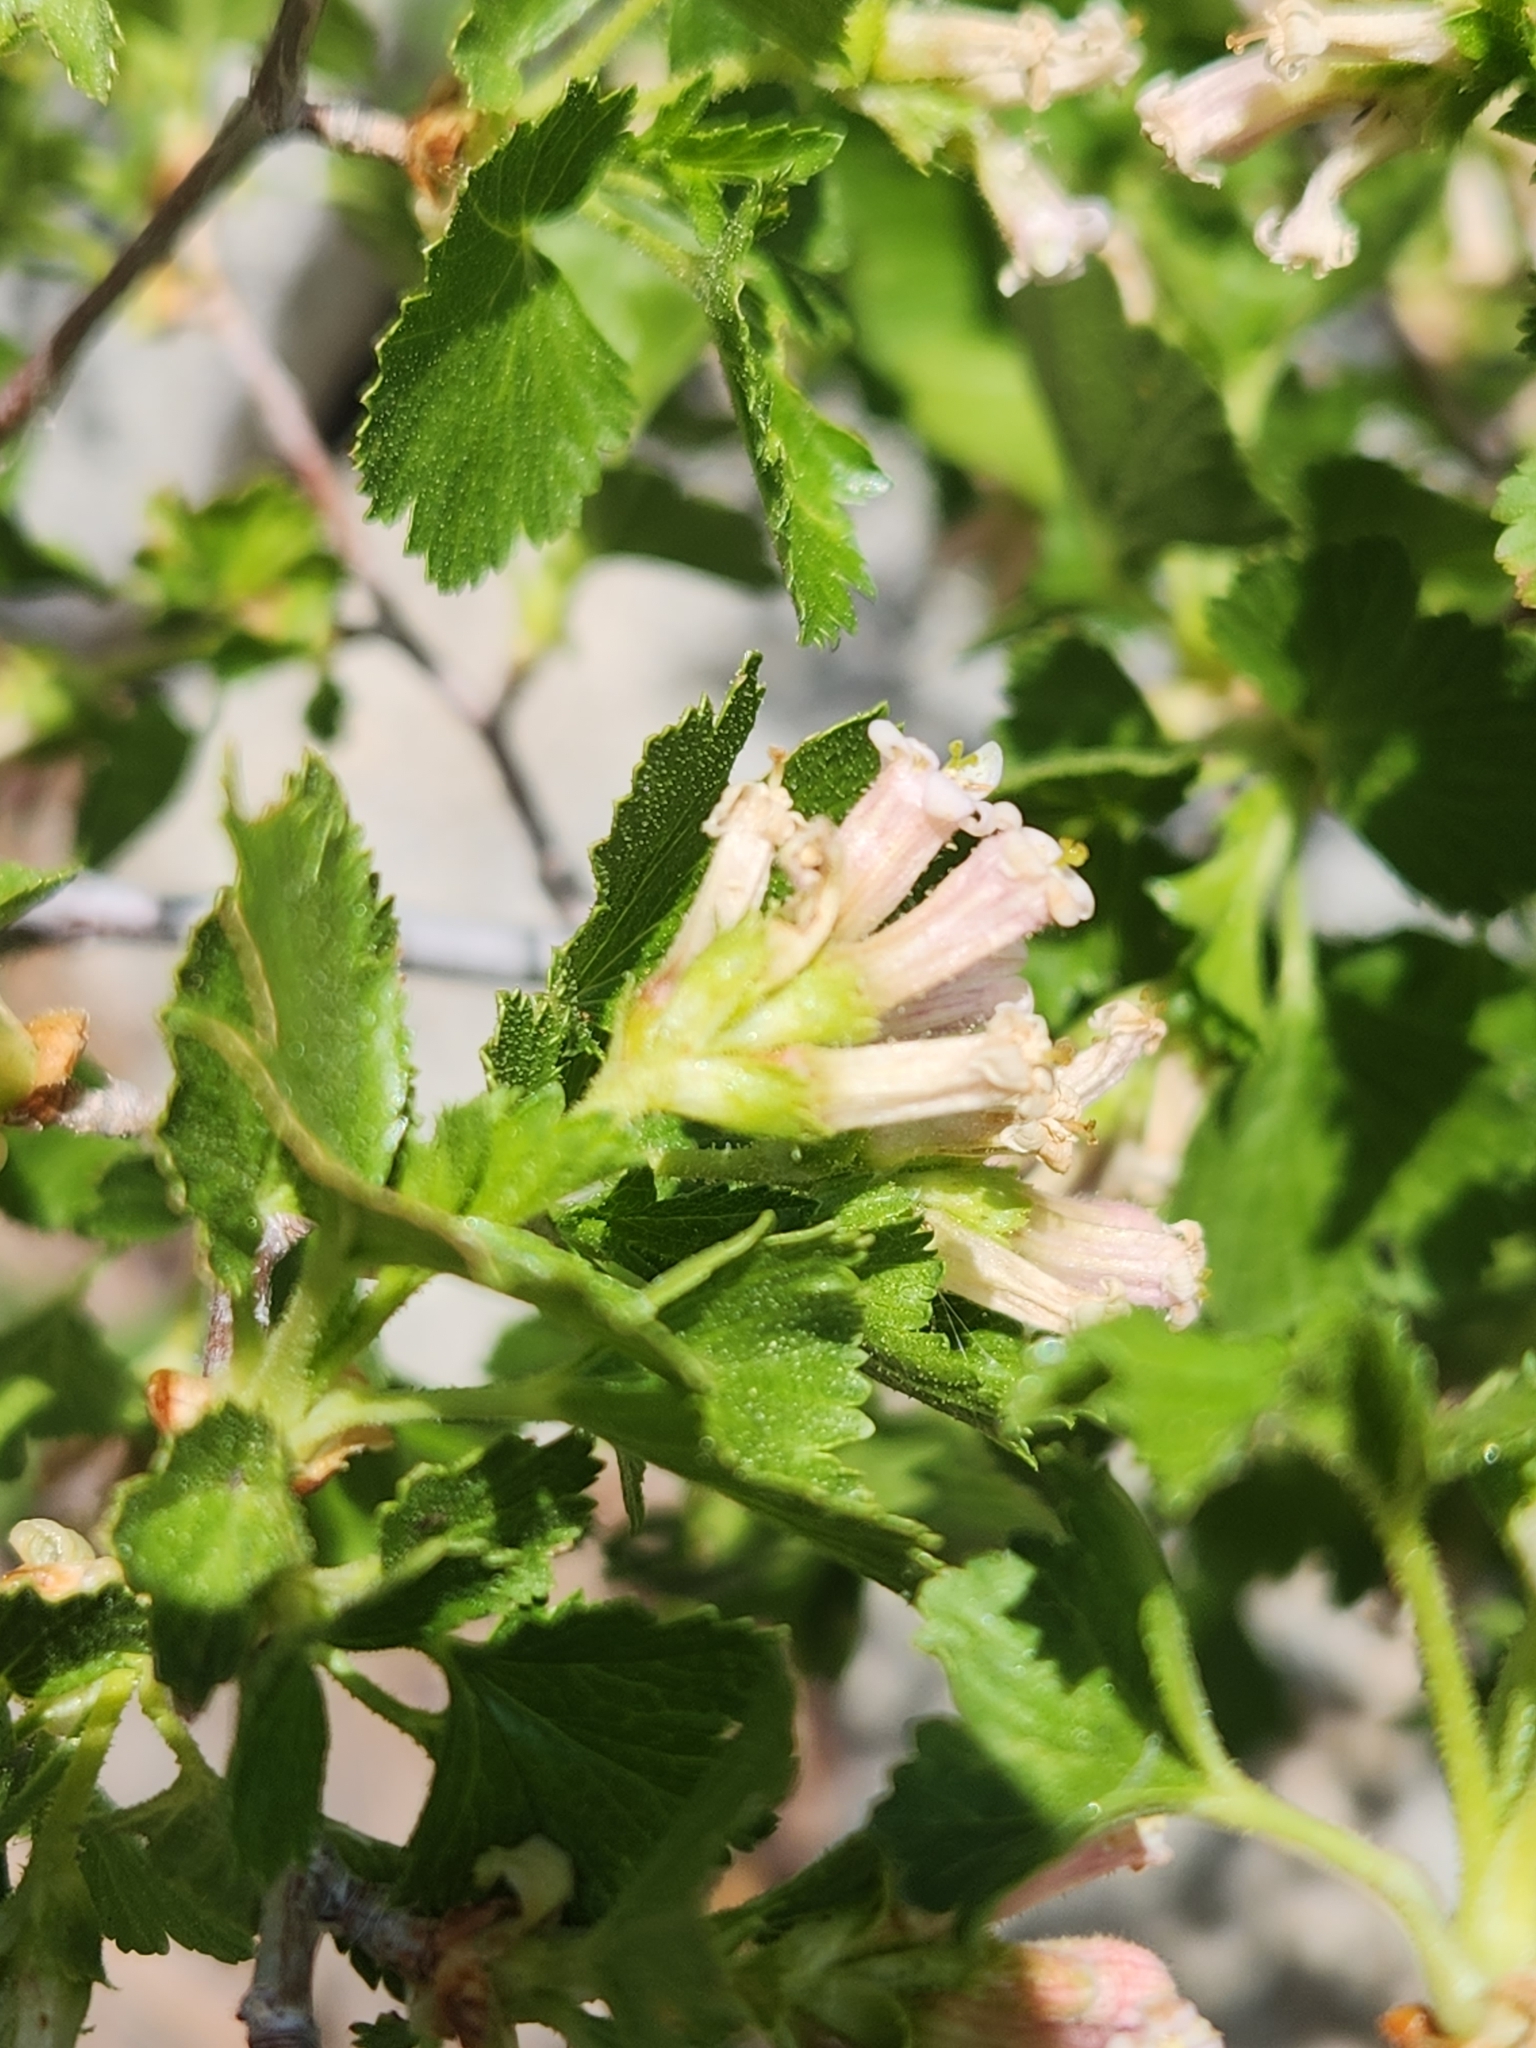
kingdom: Plantae
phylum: Tracheophyta
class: Magnoliopsida
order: Saxifragales
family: Grossulariaceae
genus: Ribes
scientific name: Ribes cereum
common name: Wax currant
